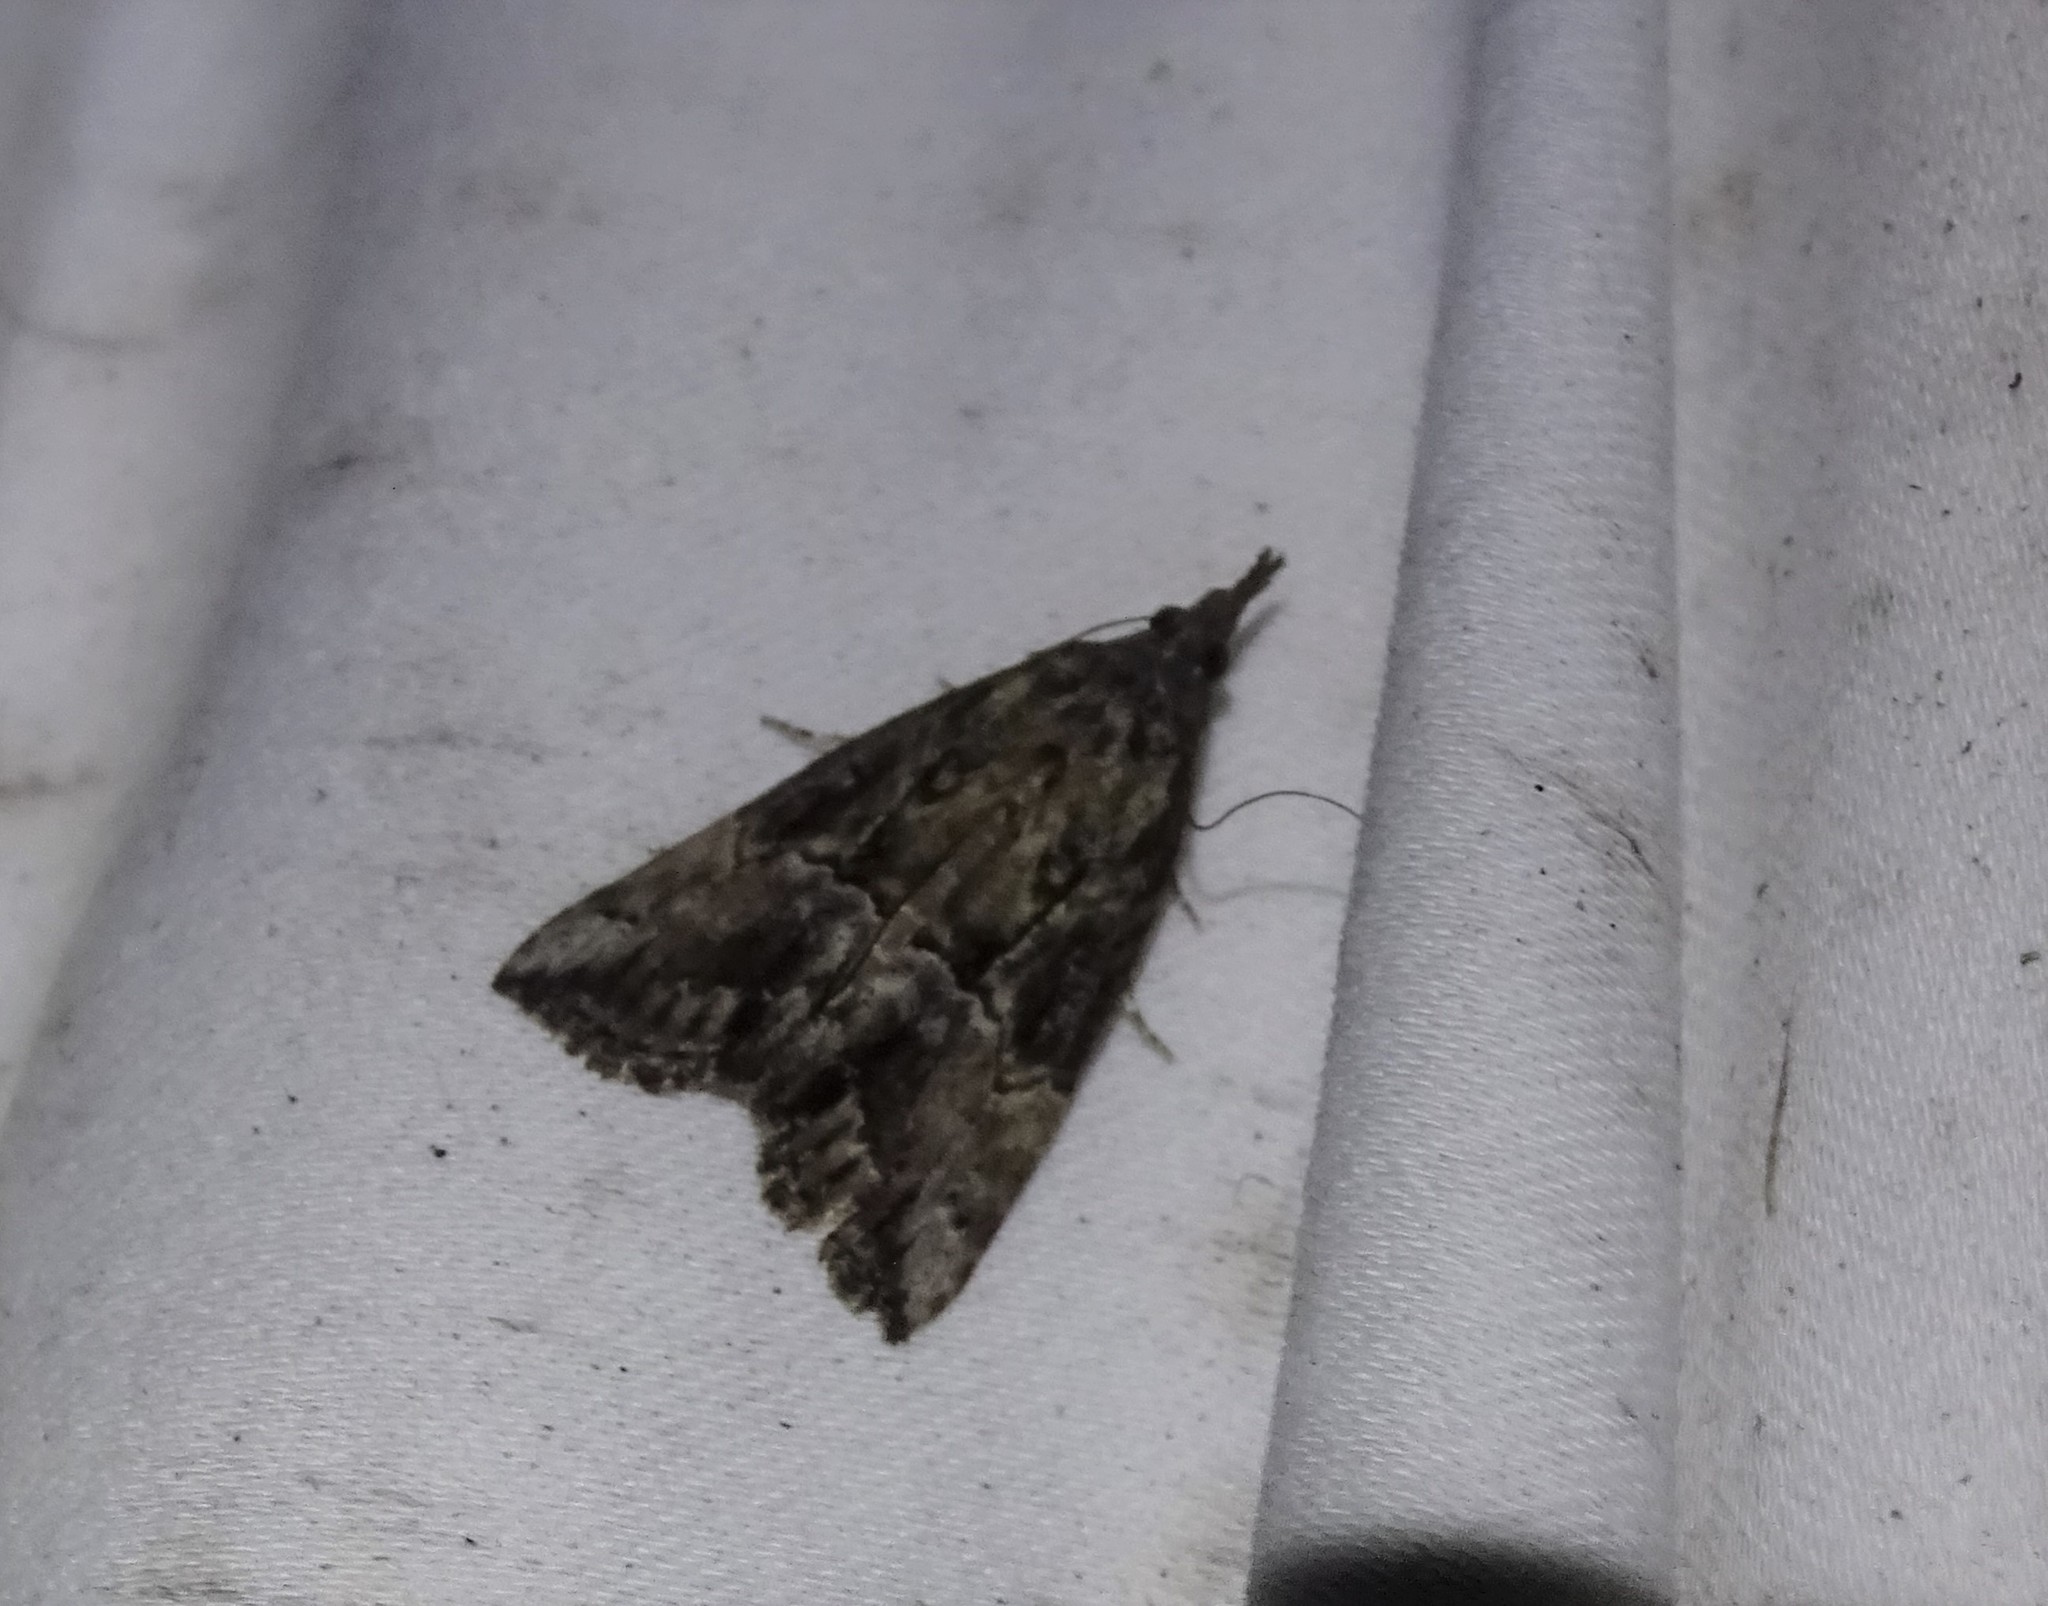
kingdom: Animalia
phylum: Arthropoda
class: Insecta
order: Lepidoptera
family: Erebidae
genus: Hypena
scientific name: Hypena scabra
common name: Green cloverworm
